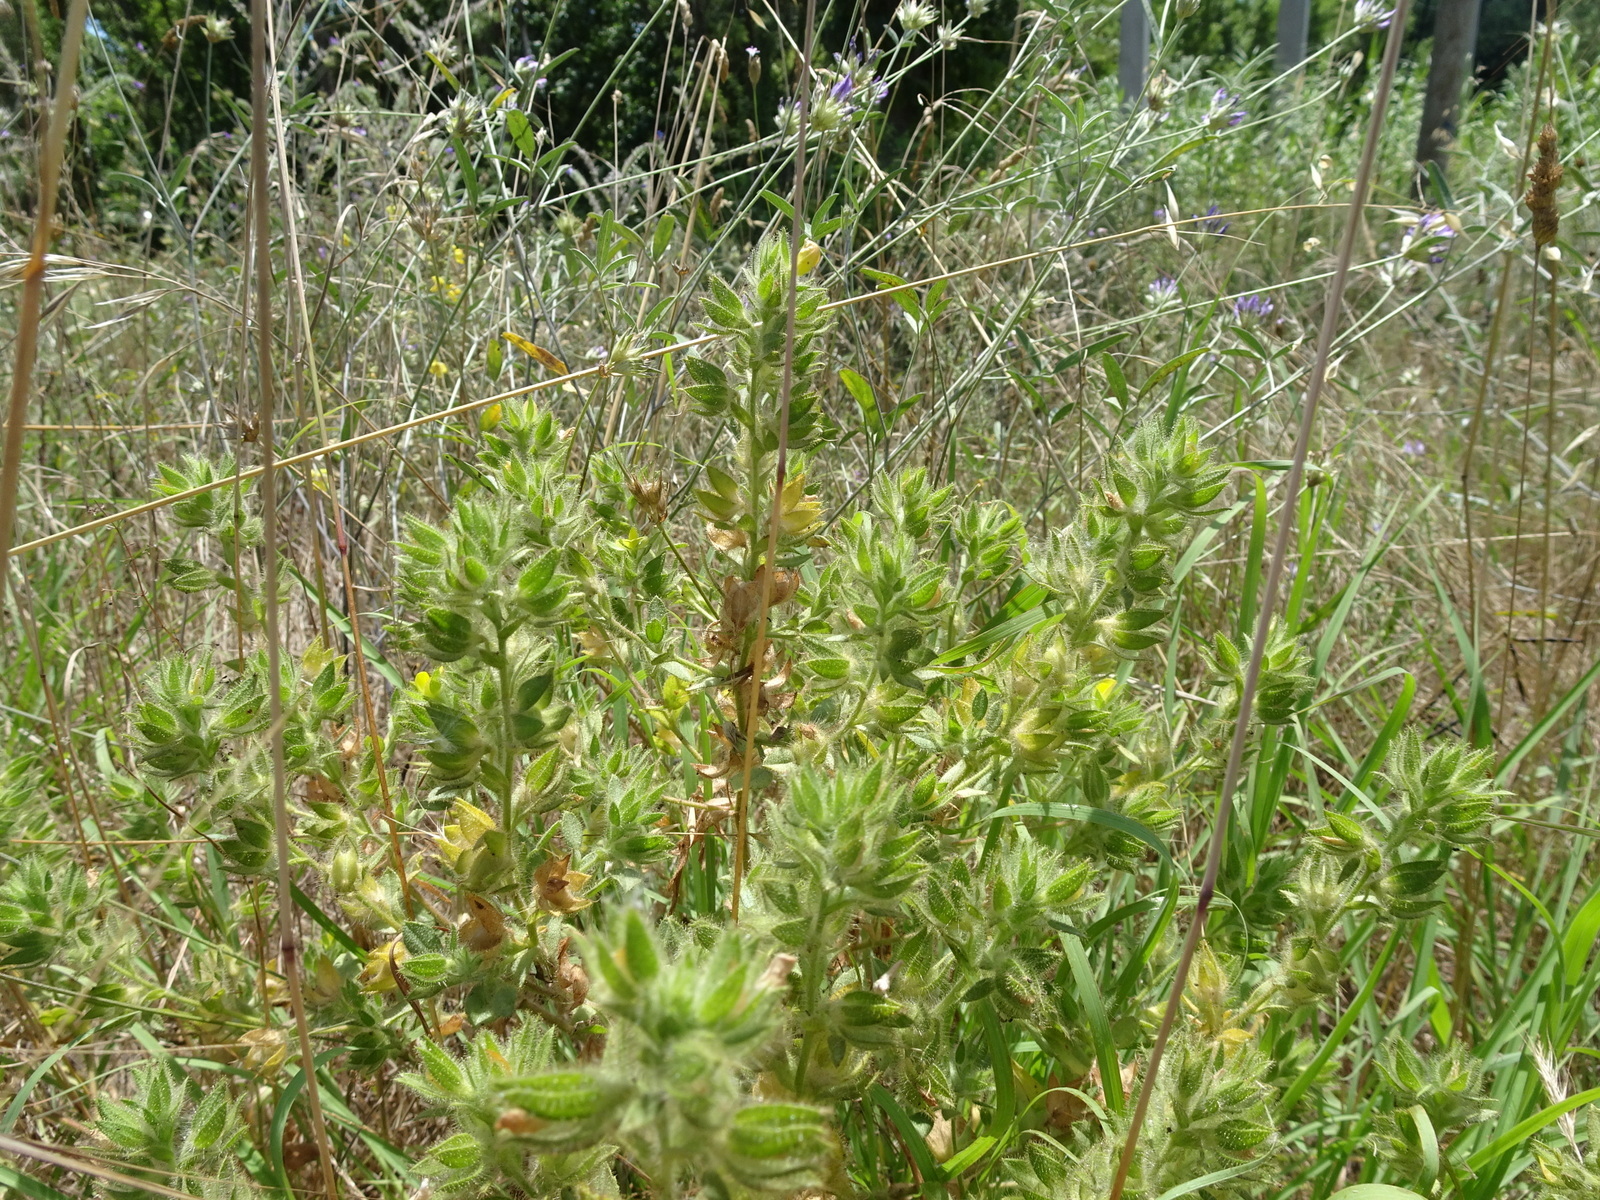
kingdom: Plantae
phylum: Tracheophyta
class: Magnoliopsida
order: Fabales
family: Fabaceae
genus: Ononis
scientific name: Ononis pubescens
